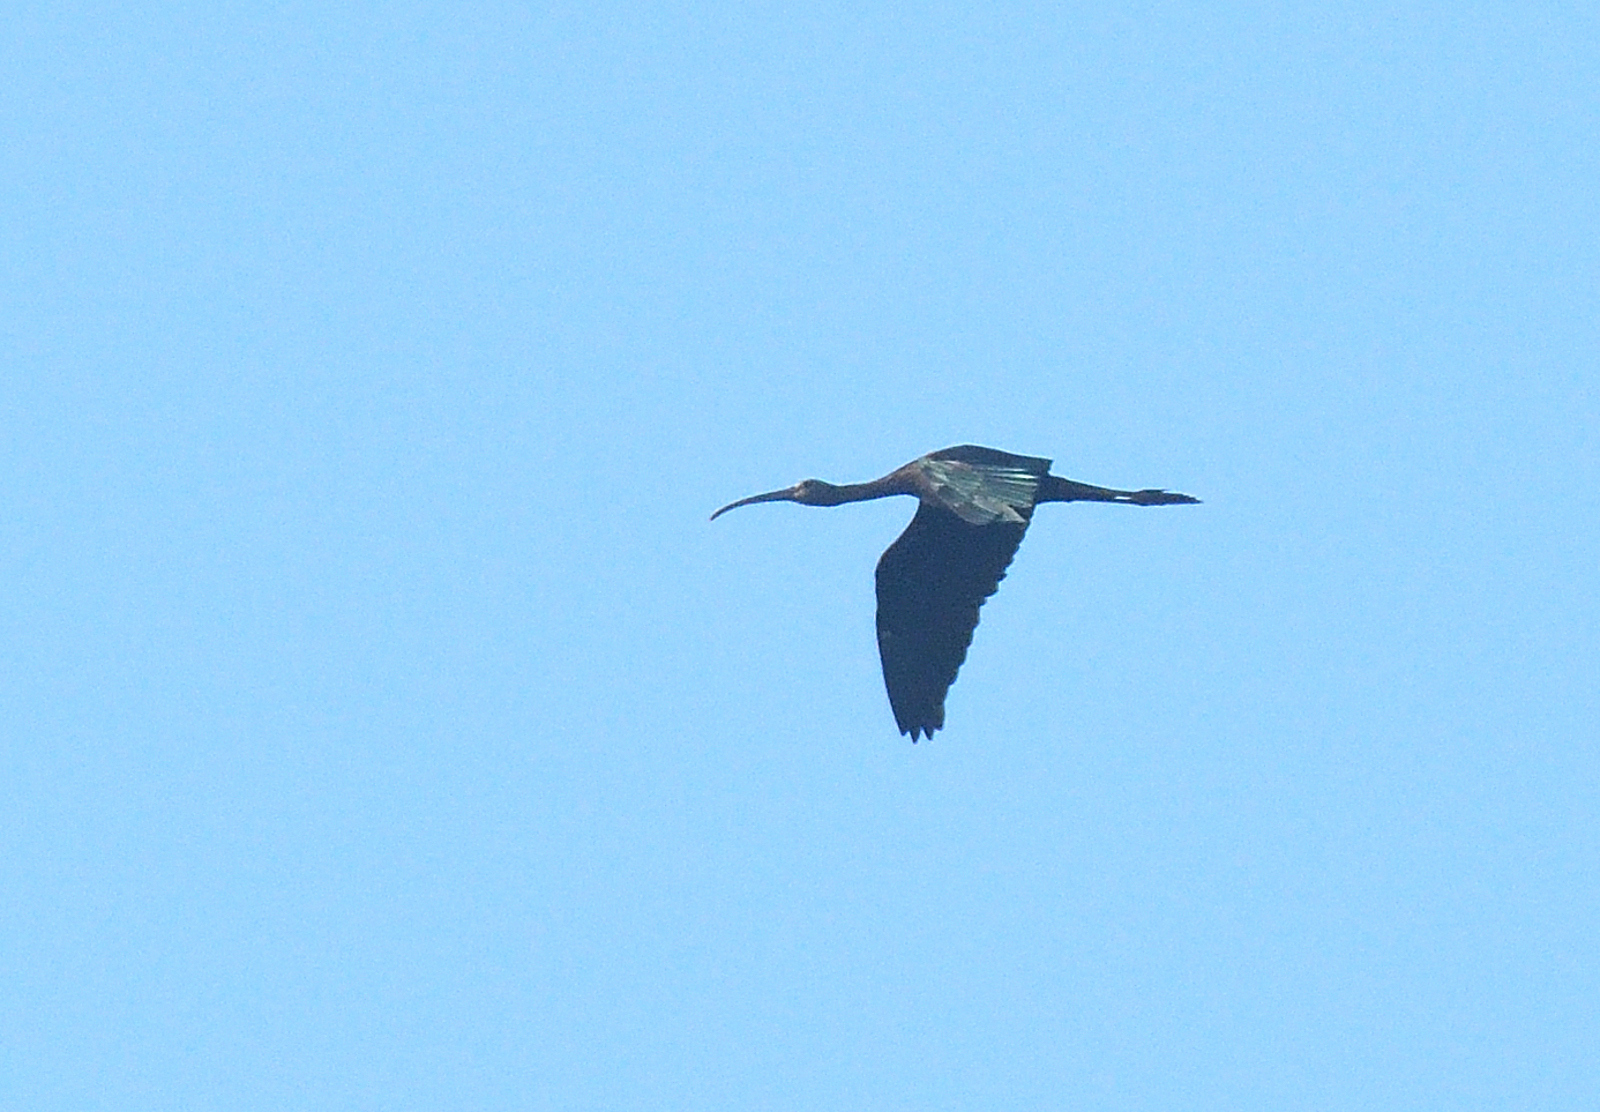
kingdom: Animalia
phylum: Chordata
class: Aves
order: Pelecaniformes
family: Threskiornithidae
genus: Plegadis
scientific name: Plegadis falcinellus
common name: Glossy ibis
